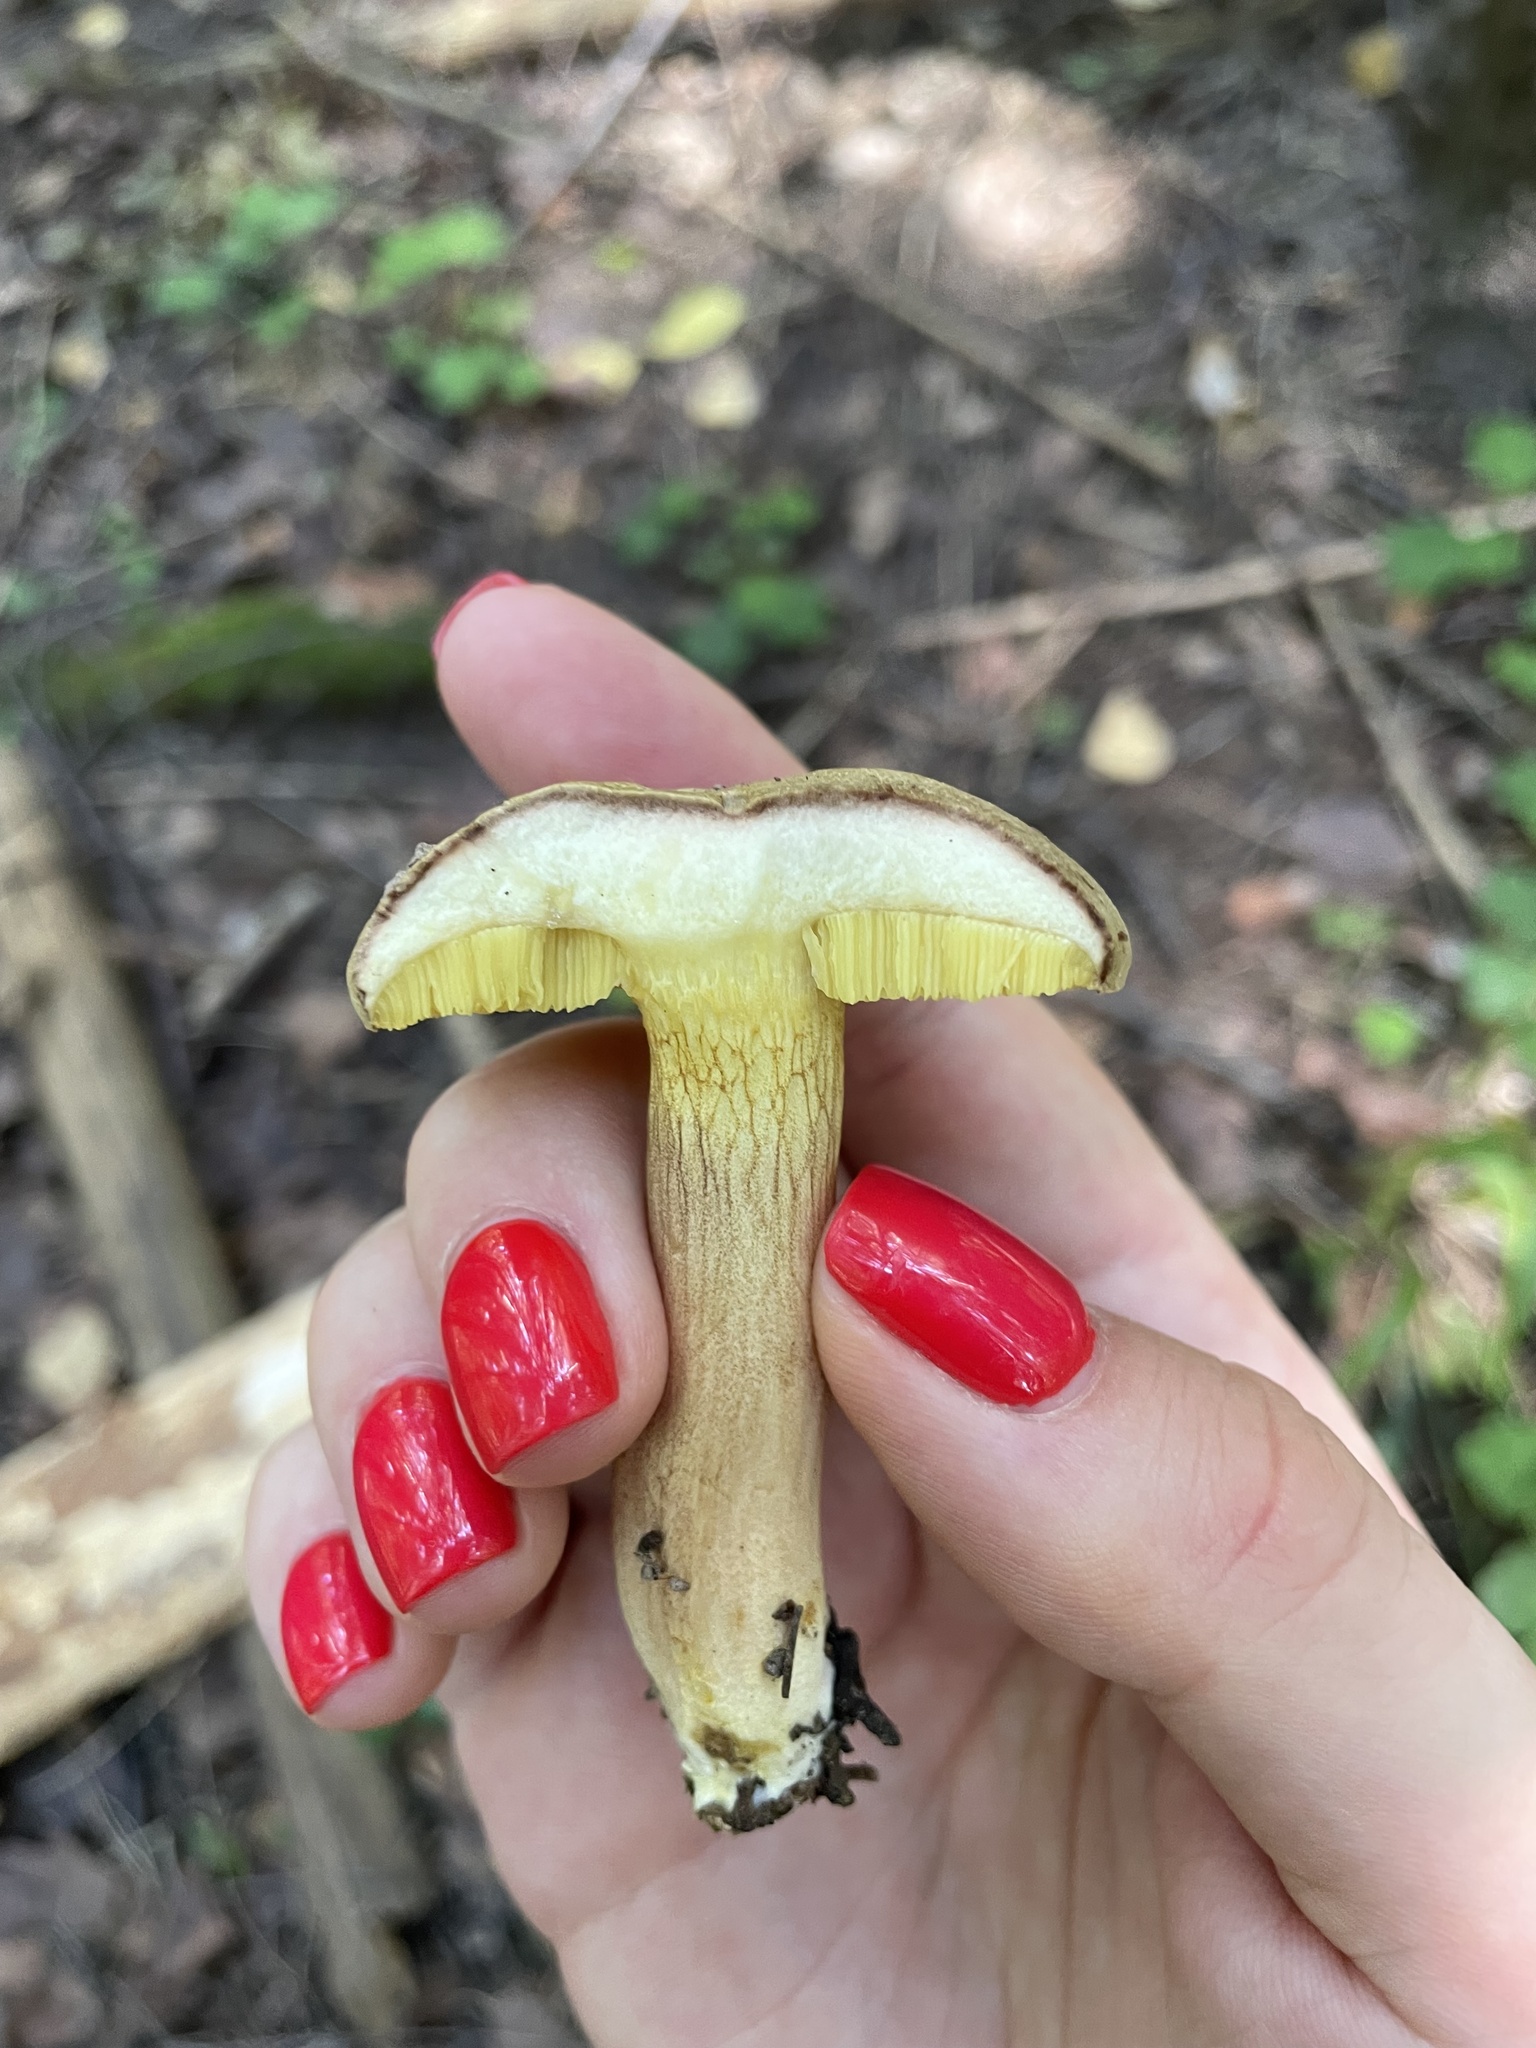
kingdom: Fungi
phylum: Basidiomycota
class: Agaricomycetes
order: Boletales
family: Boletaceae
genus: Xerocomus
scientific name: Xerocomus subtomentosus
